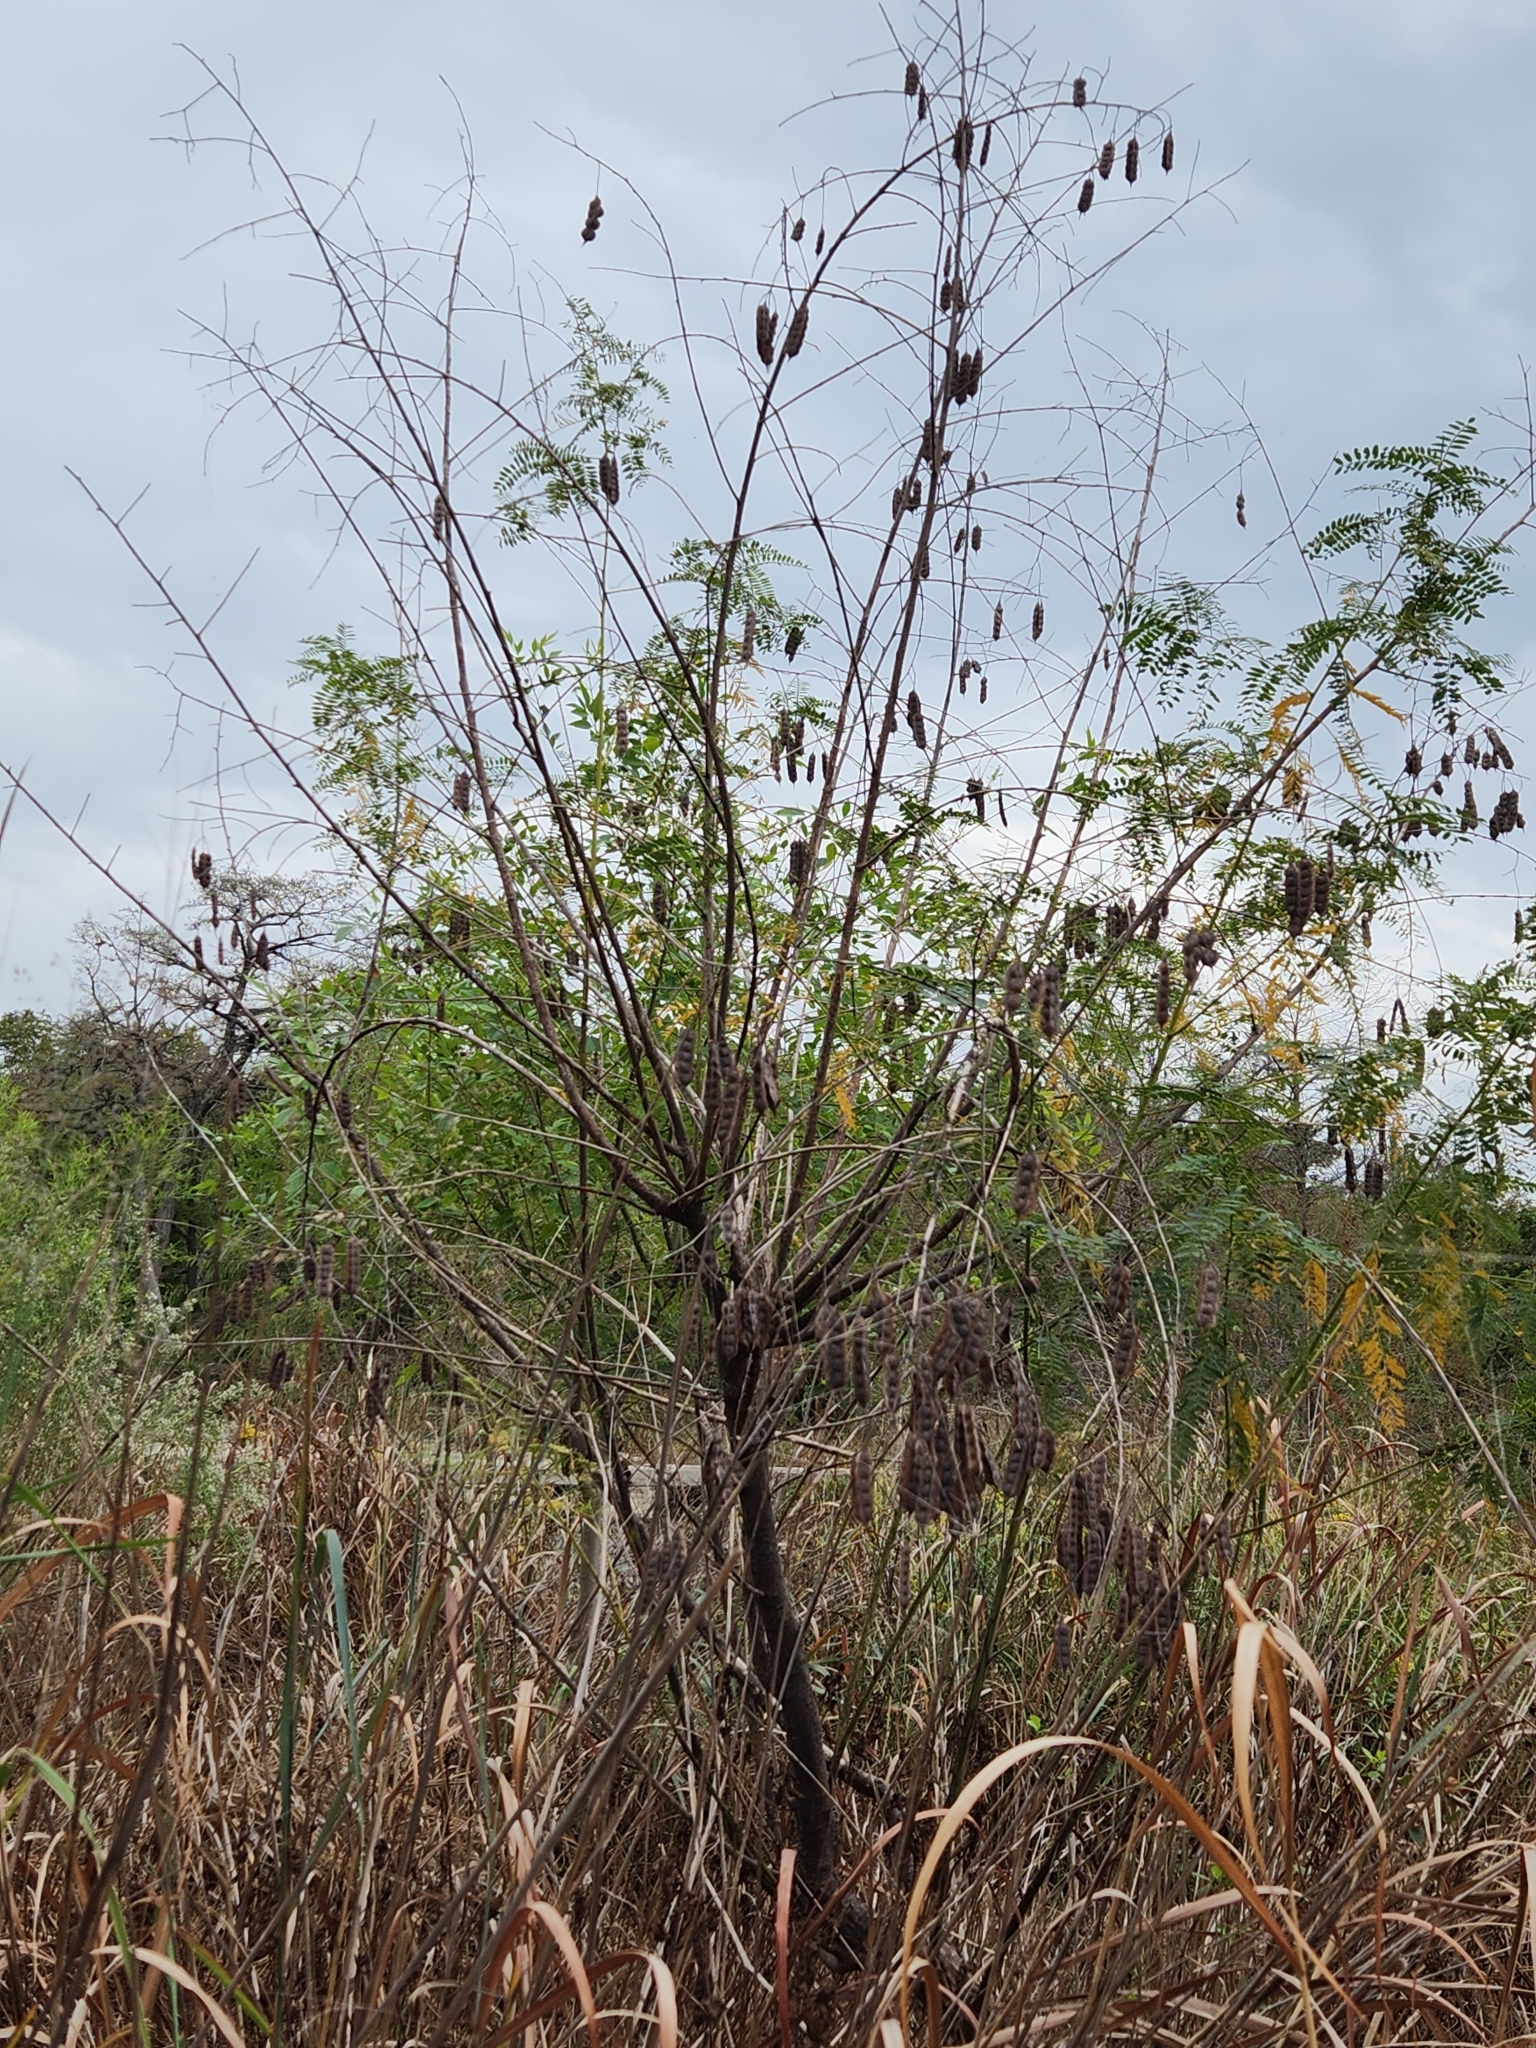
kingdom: Plantae
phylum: Tracheophyta
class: Magnoliopsida
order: Fabales
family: Fabaceae
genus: Sesbania
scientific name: Sesbania drummondii
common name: Poison-bean
